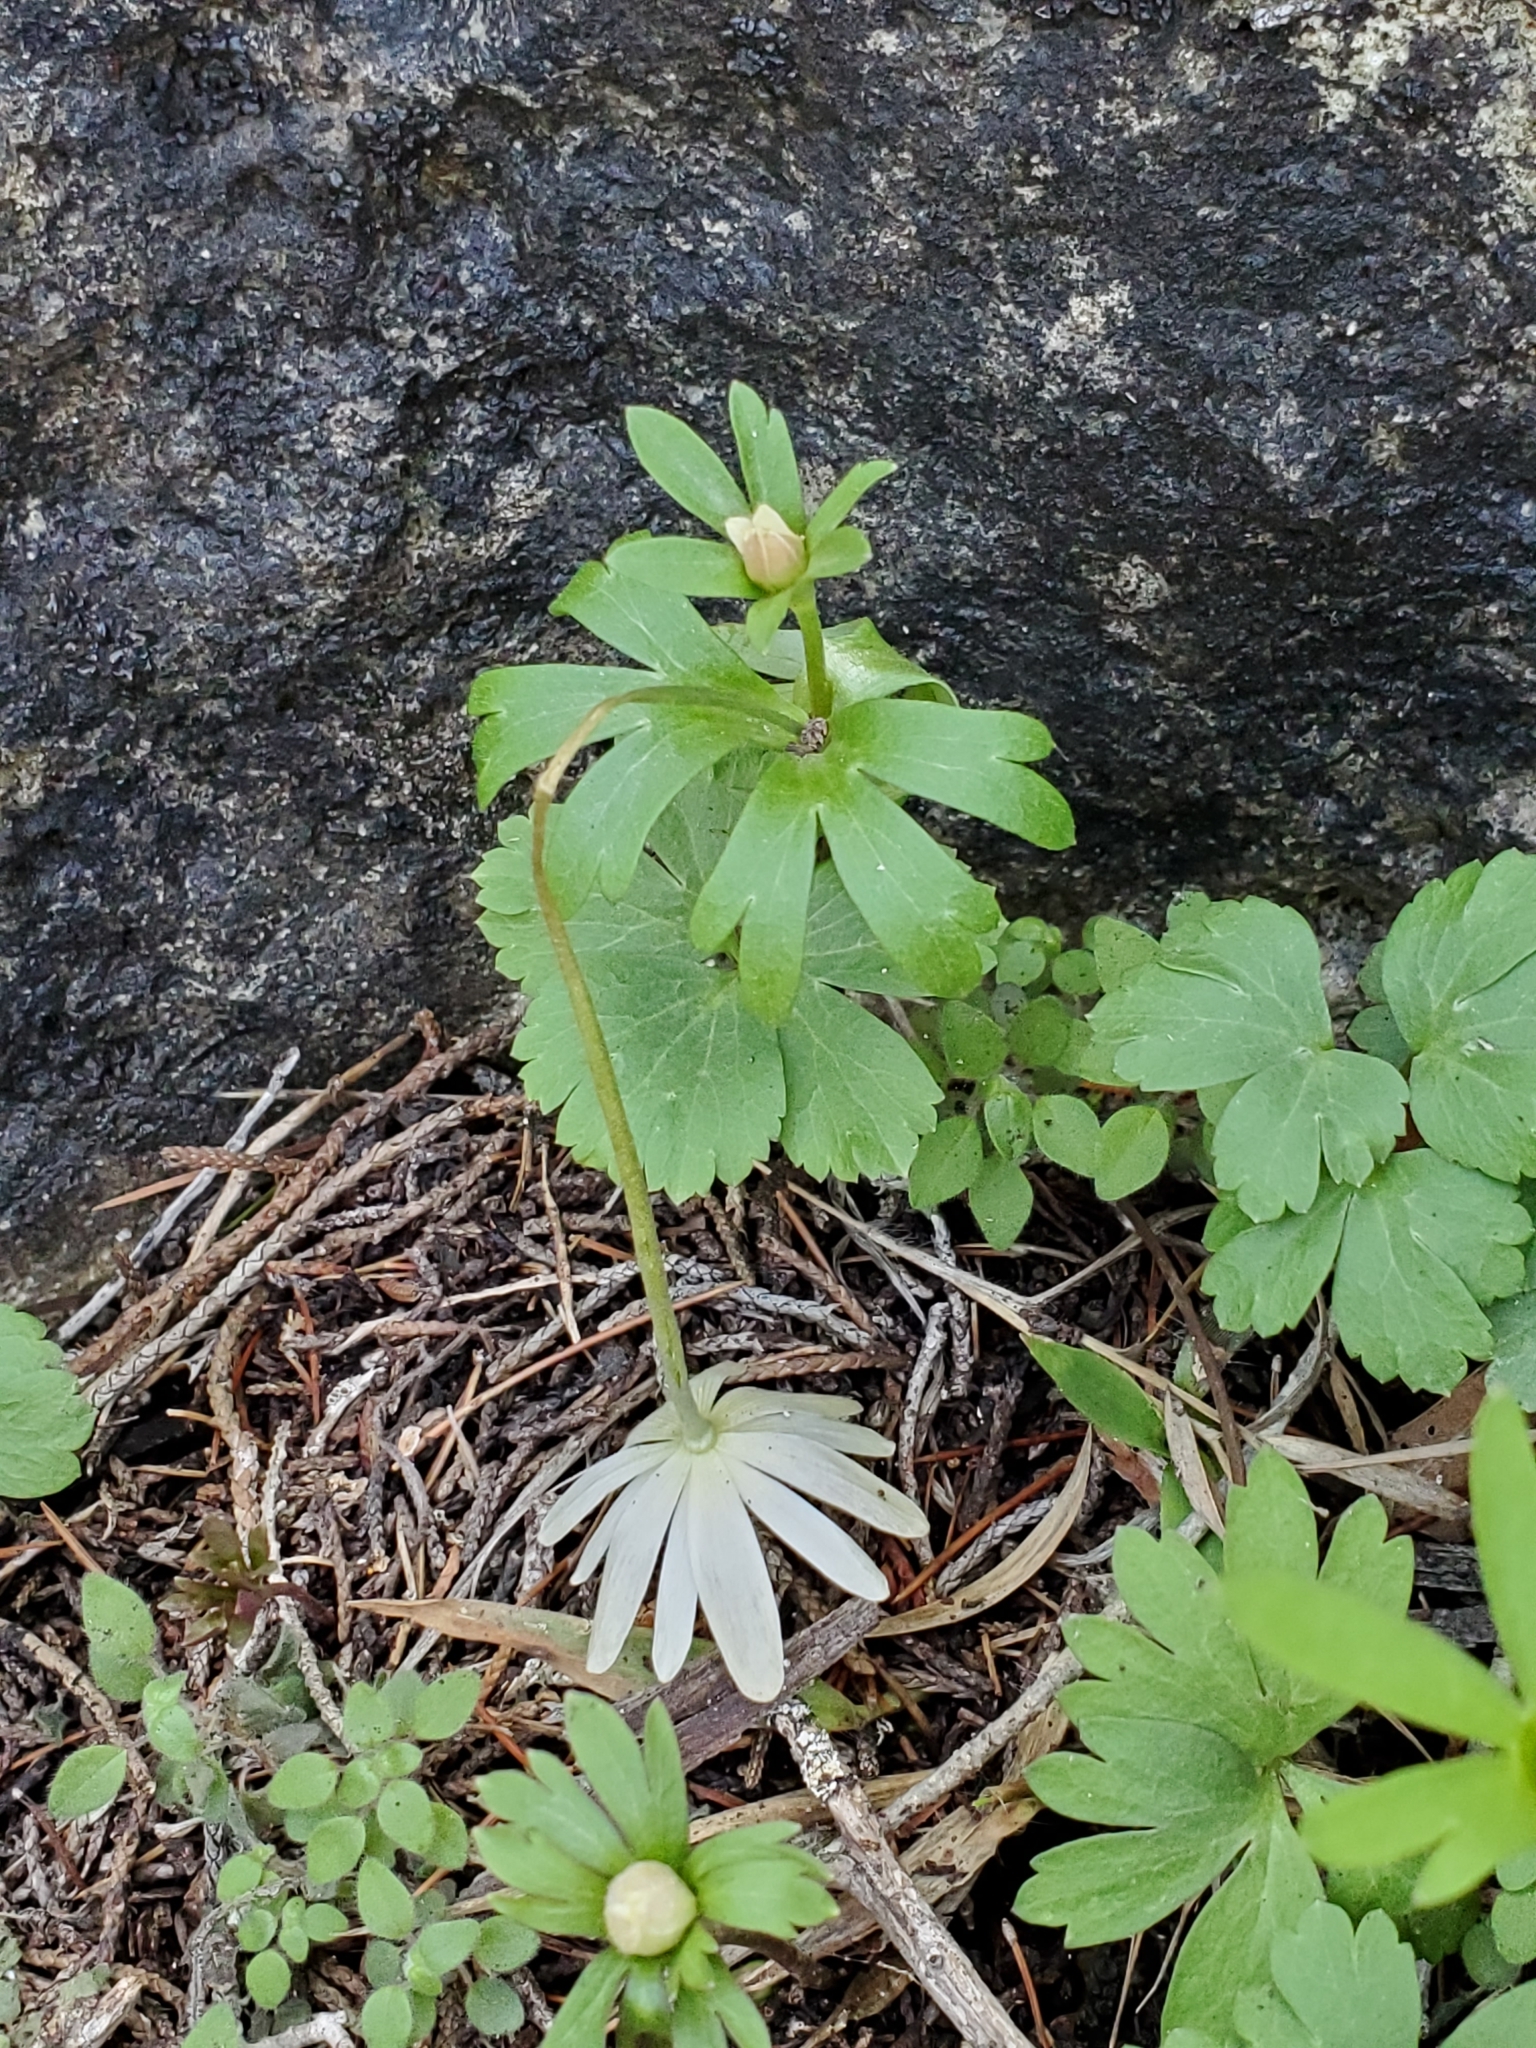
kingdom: Plantae
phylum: Tracheophyta
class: Magnoliopsida
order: Ranunculales
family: Ranunculaceae
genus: Anemone
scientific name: Anemone edwardsiana
